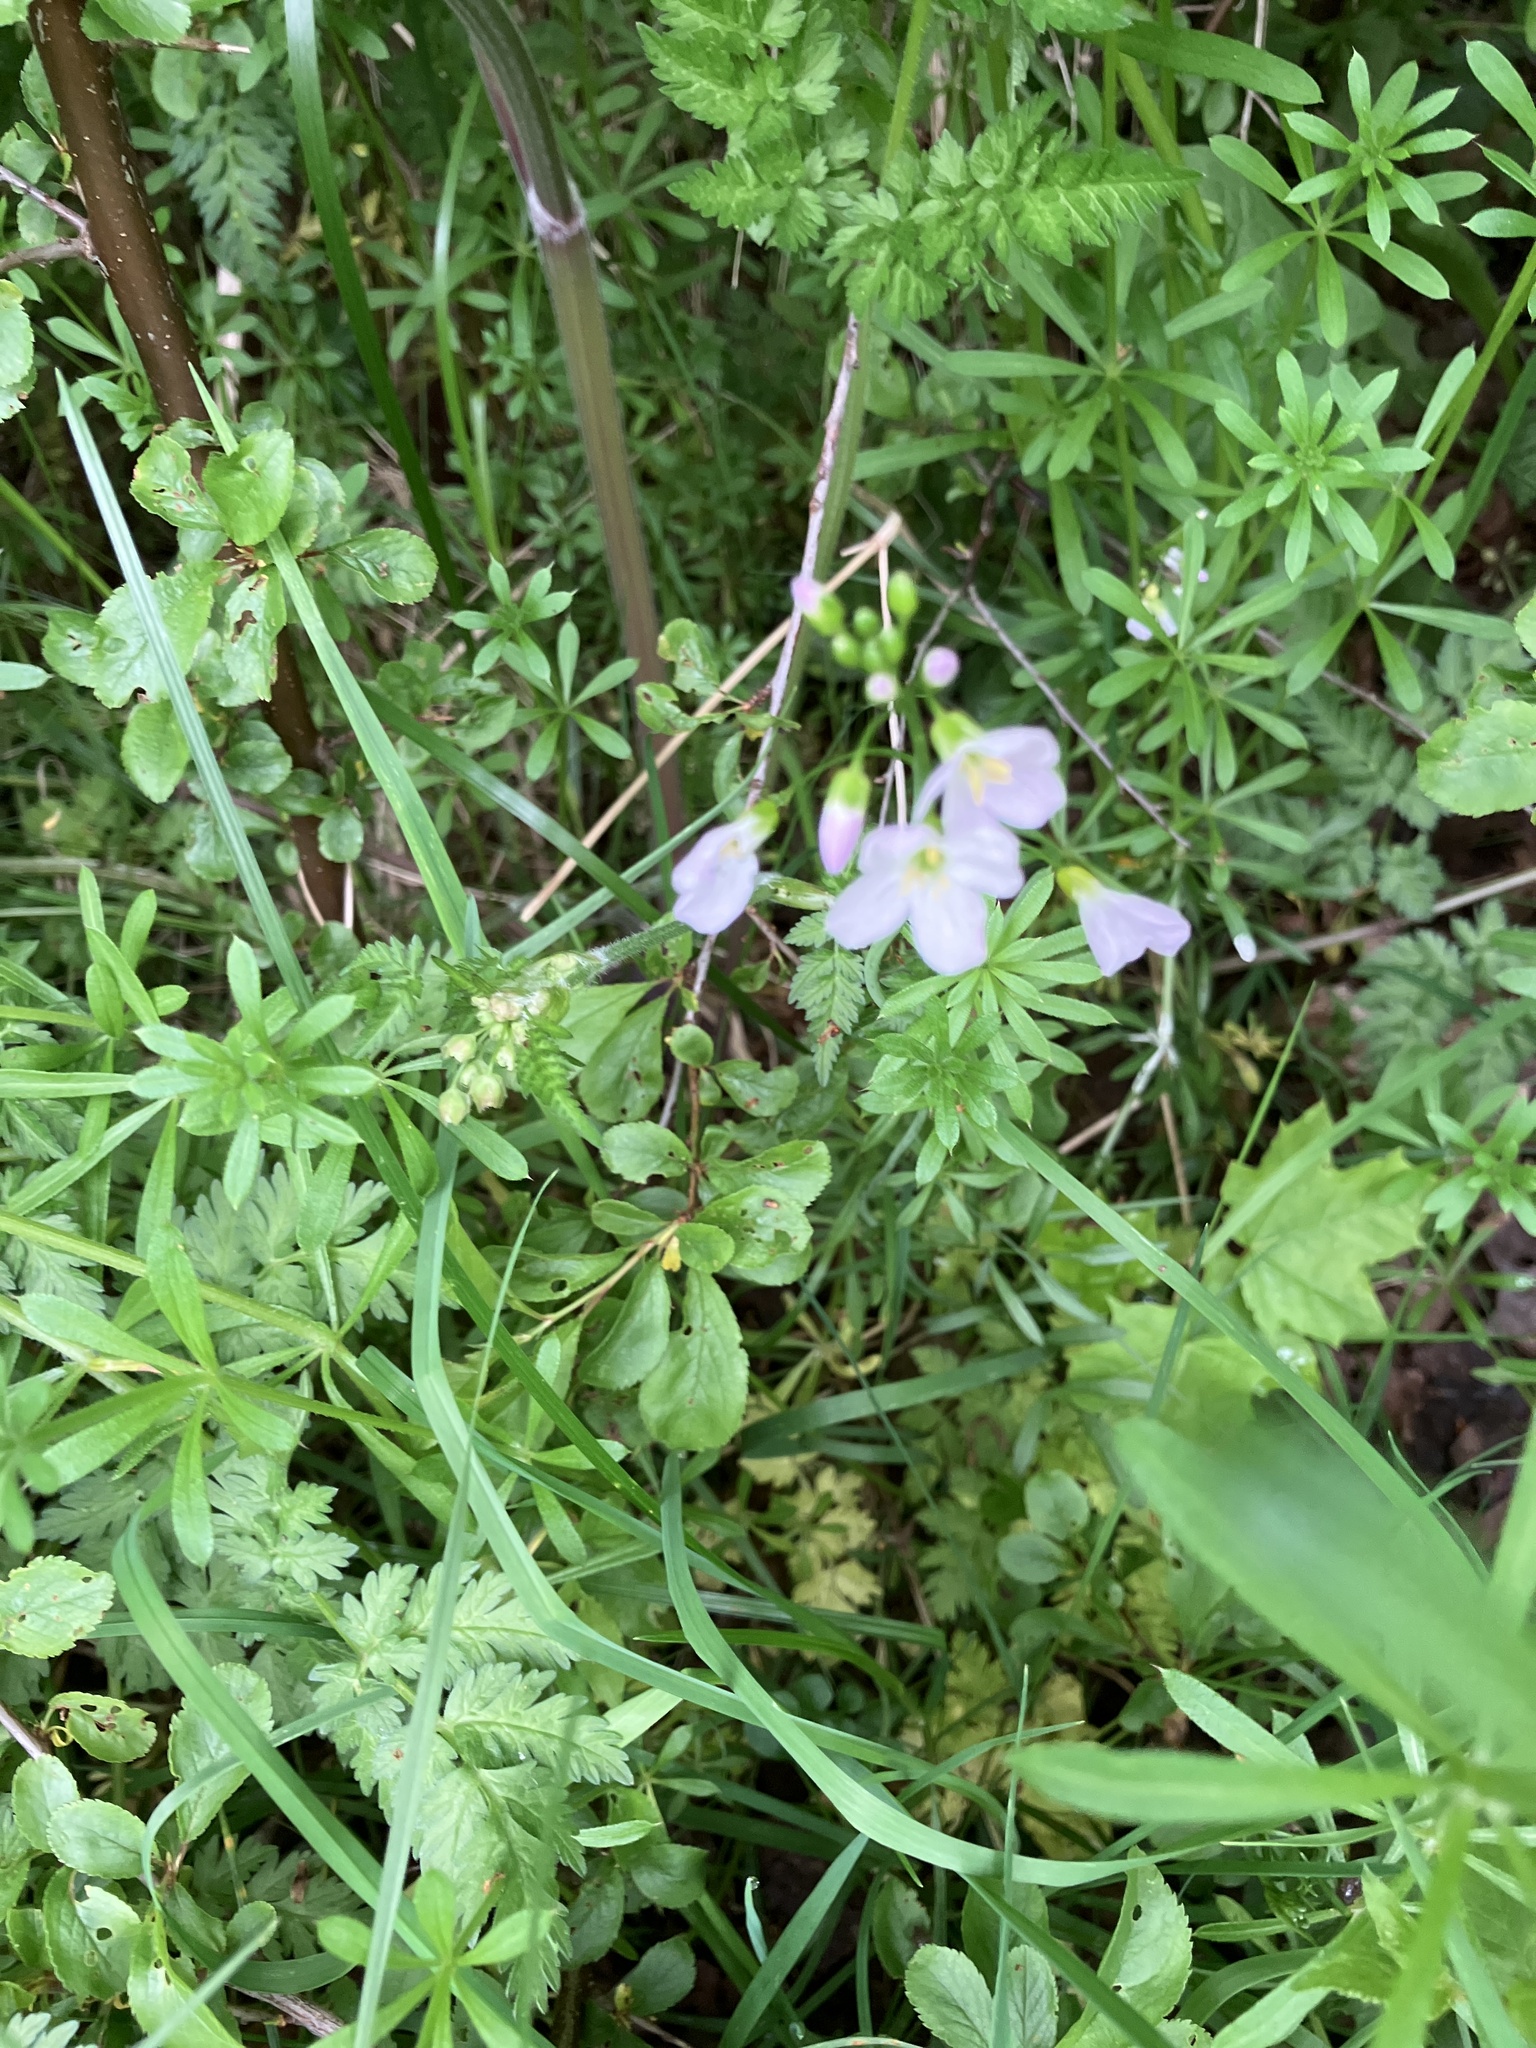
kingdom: Plantae
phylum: Tracheophyta
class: Magnoliopsida
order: Brassicales
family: Brassicaceae
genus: Cardamine
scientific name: Cardamine pratensis
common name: Cuckoo flower
